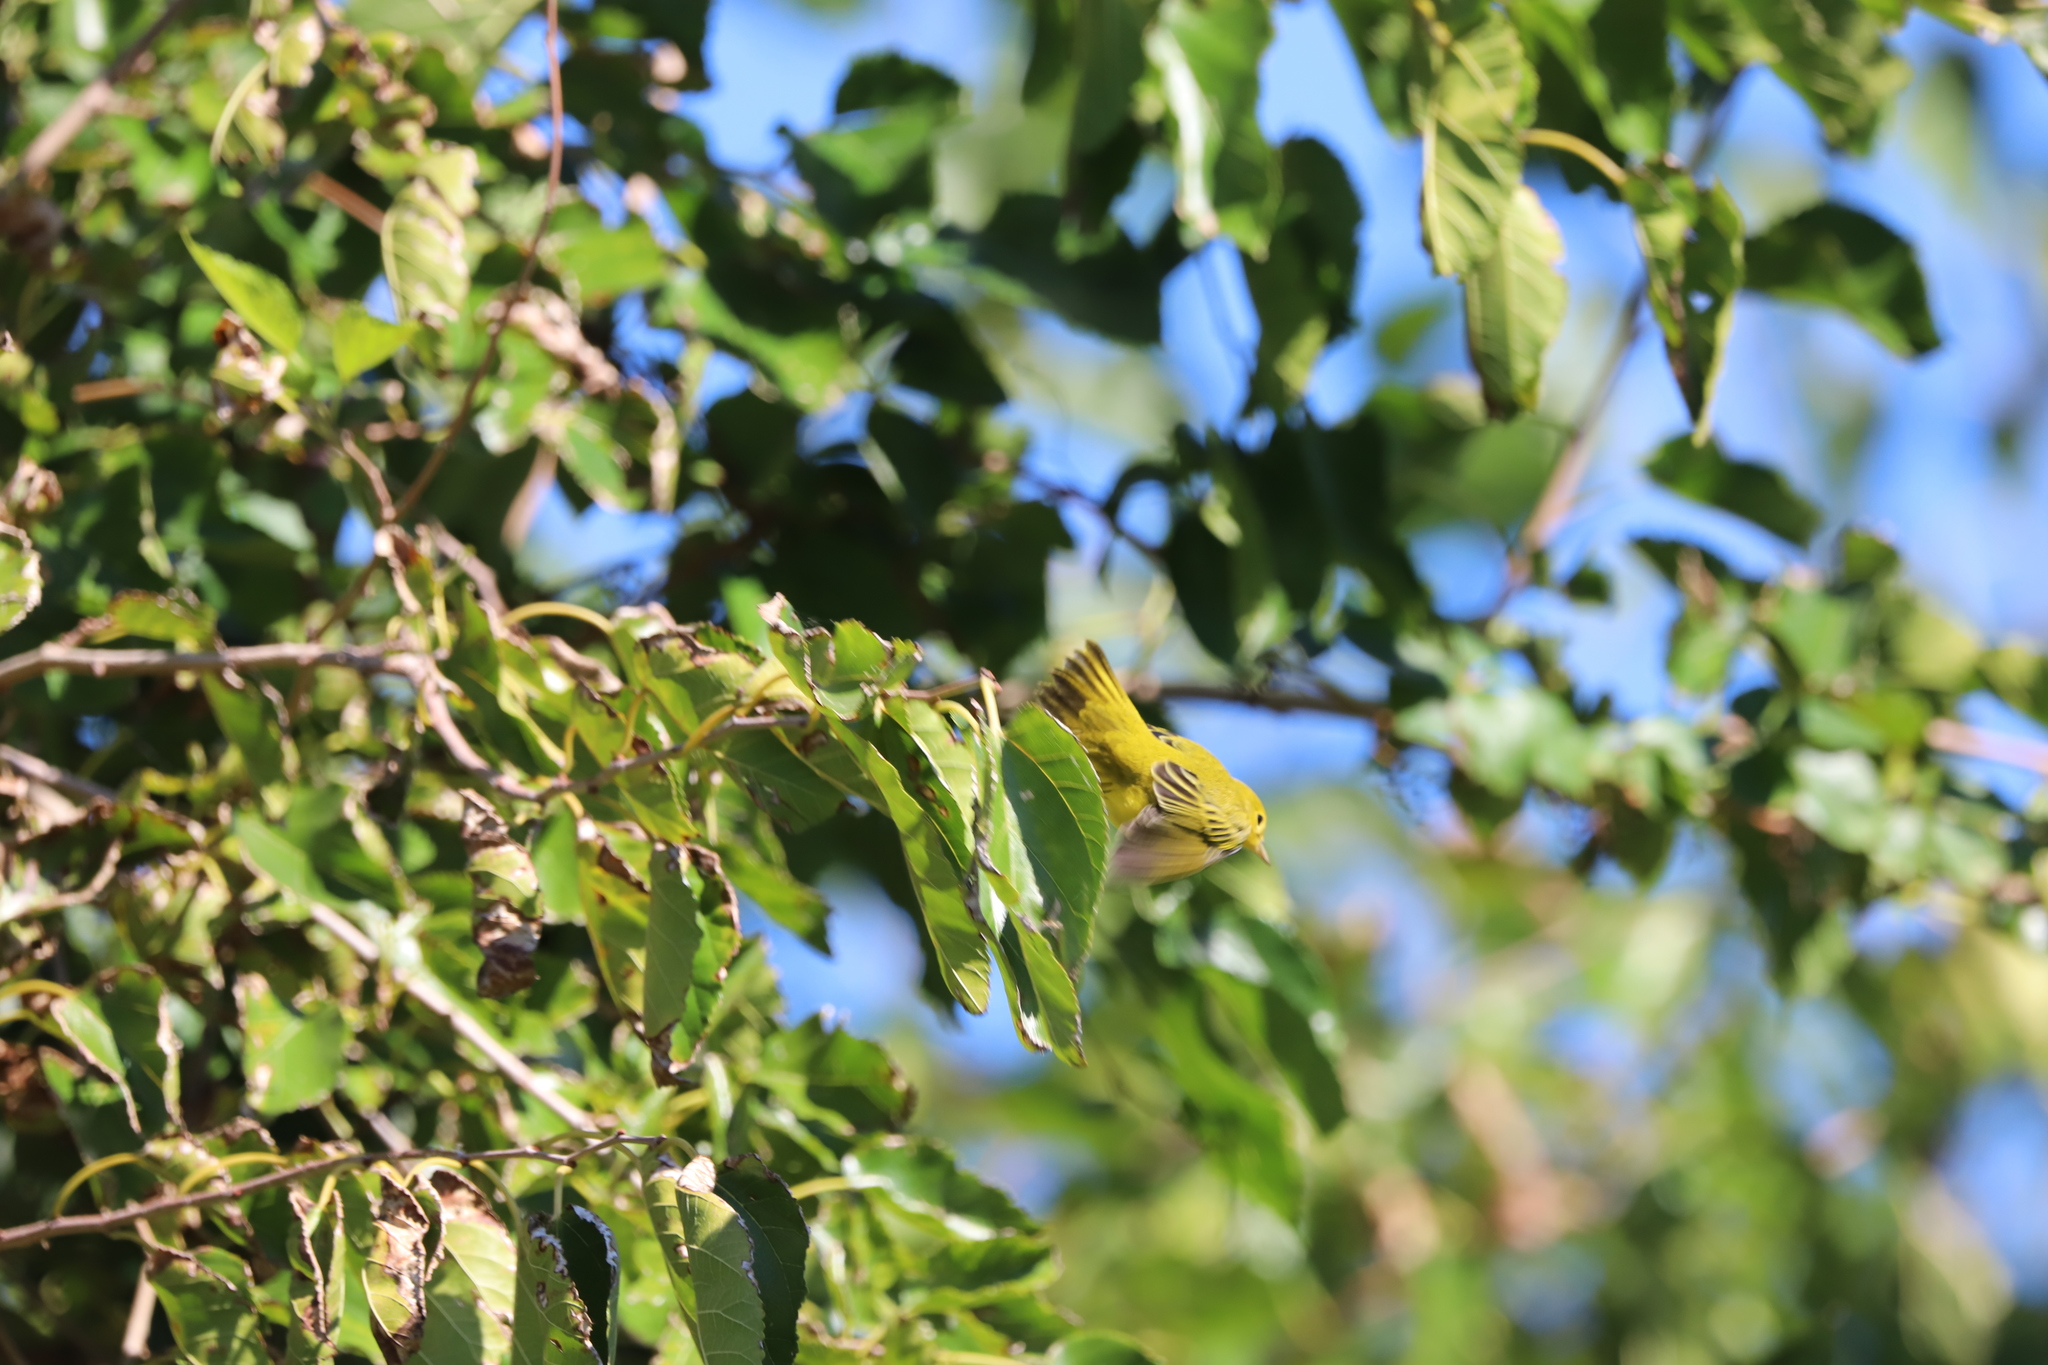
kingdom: Animalia
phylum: Chordata
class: Aves
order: Passeriformes
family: Parulidae
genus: Setophaga
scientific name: Setophaga petechia
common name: Yellow warbler
